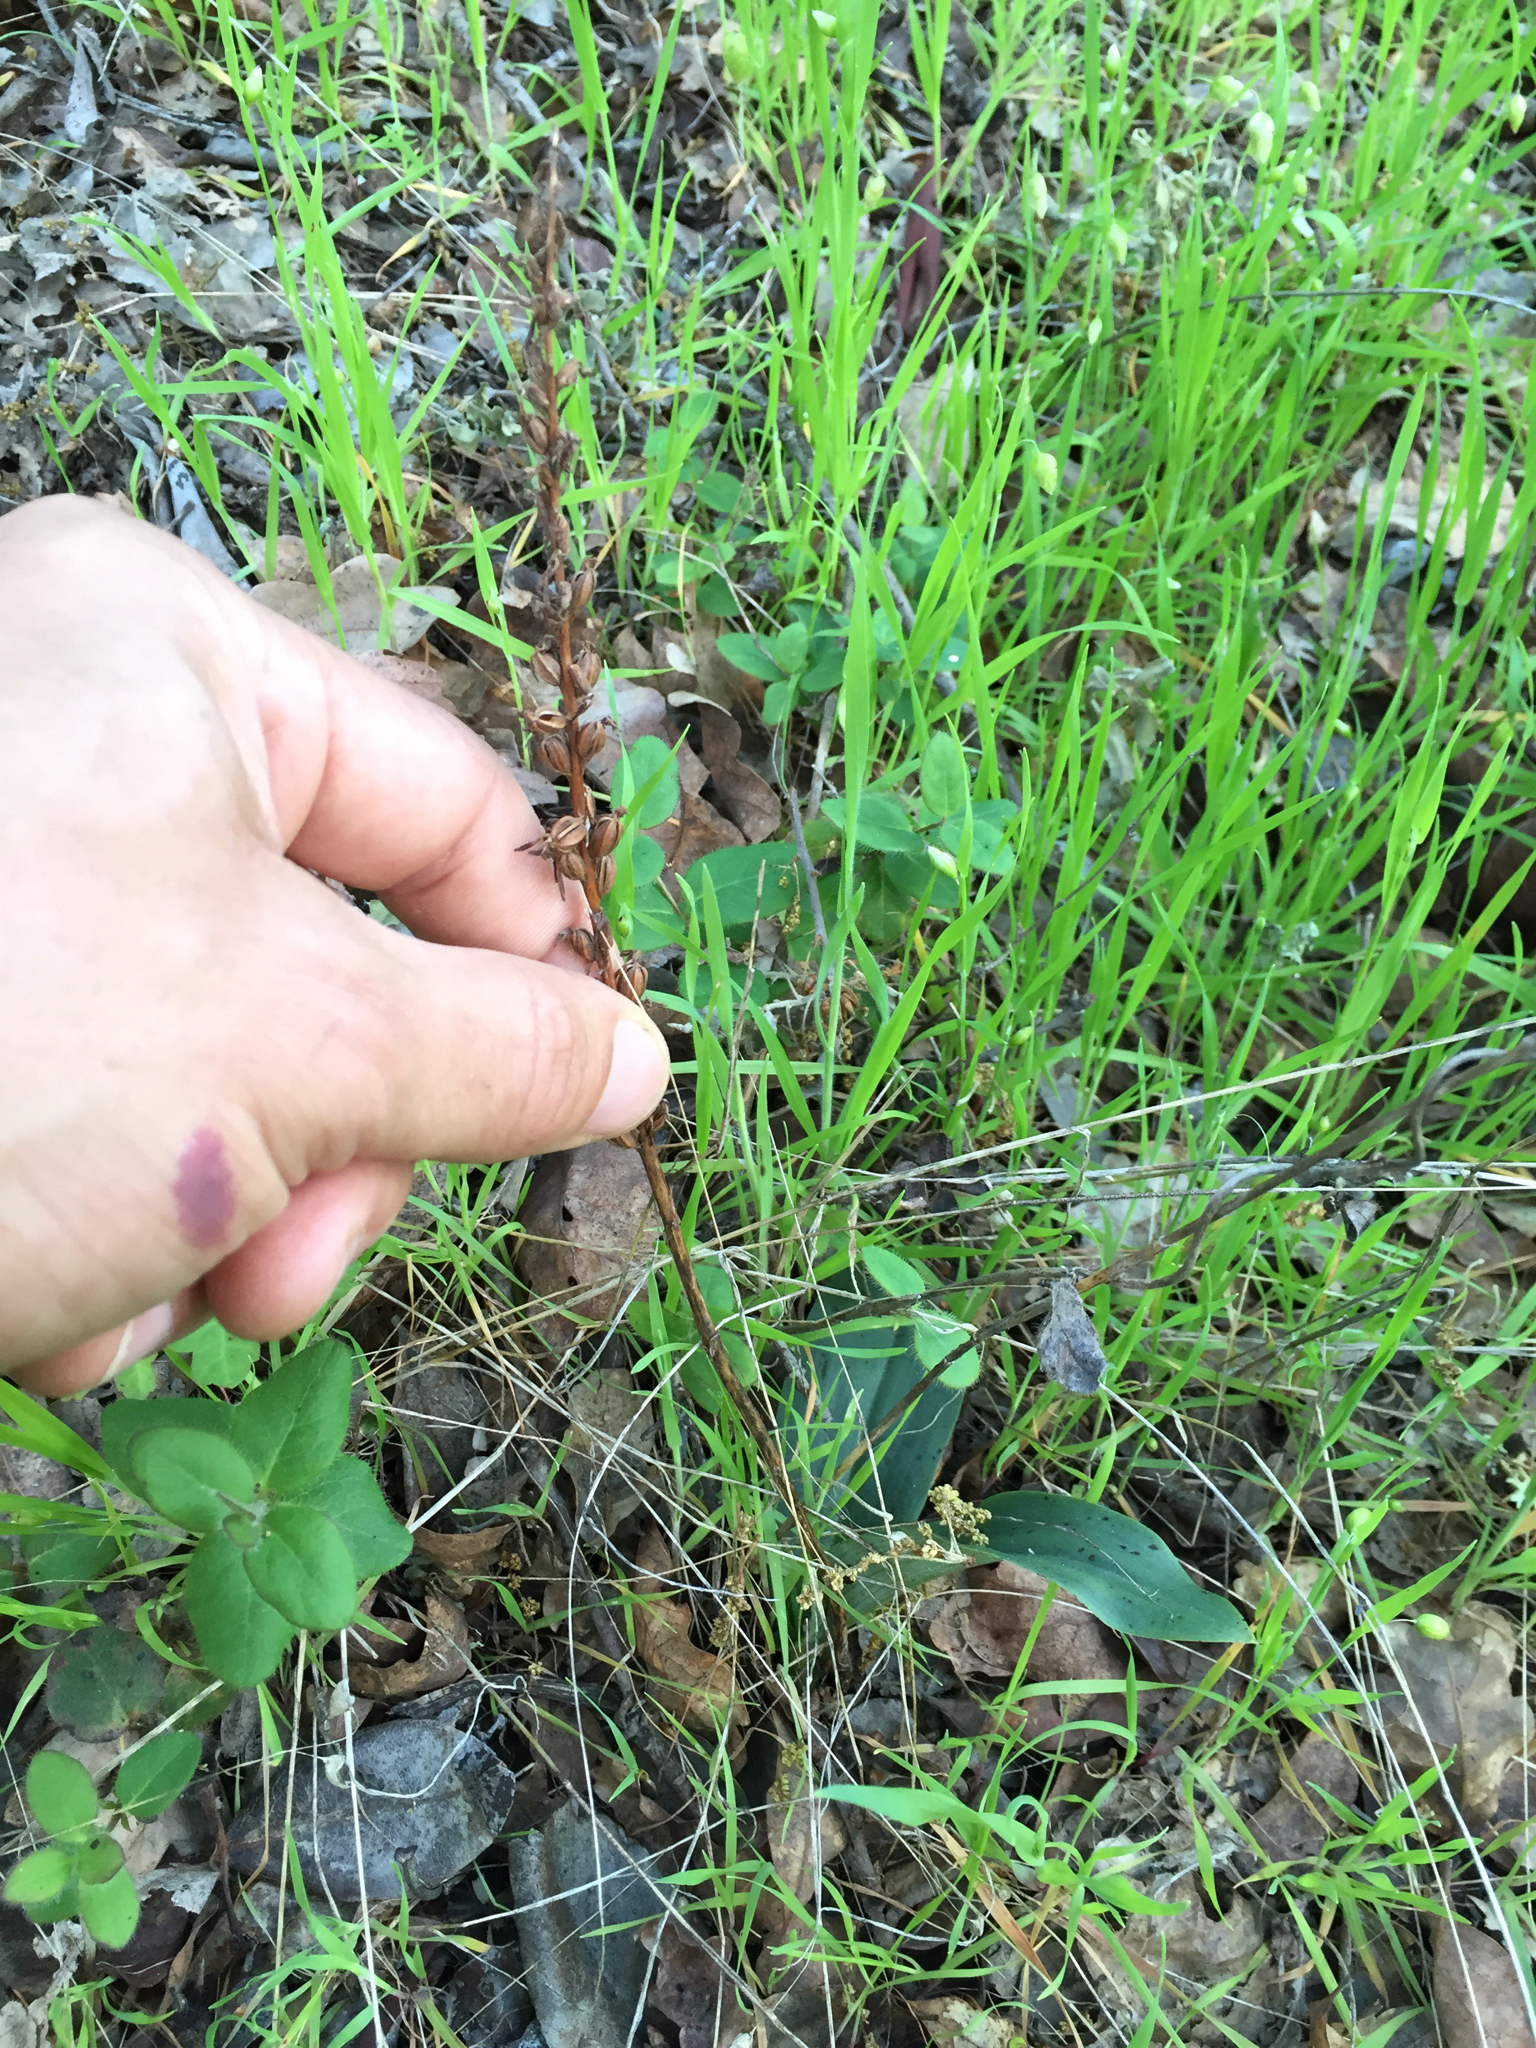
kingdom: Plantae
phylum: Tracheophyta
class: Liliopsida
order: Asparagales
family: Orchidaceae
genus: Platanthera
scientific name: Platanthera
